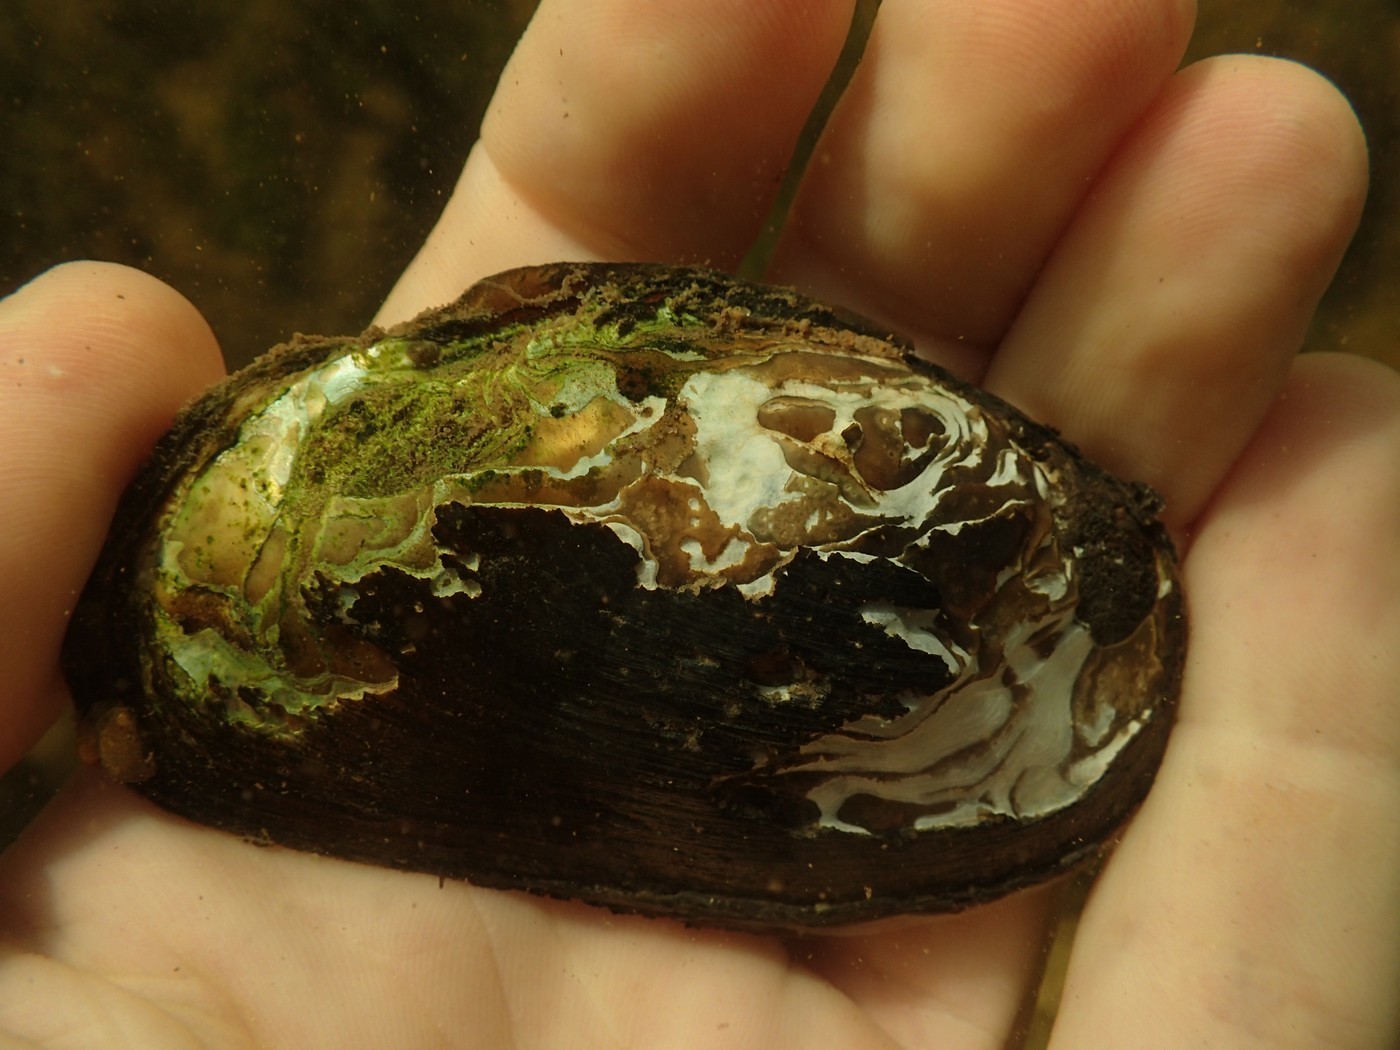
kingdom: Animalia
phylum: Mollusca
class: Bivalvia
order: Unionida
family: Unionidae
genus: Elliptio
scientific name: Elliptio complanata
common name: Eastern elliptio
